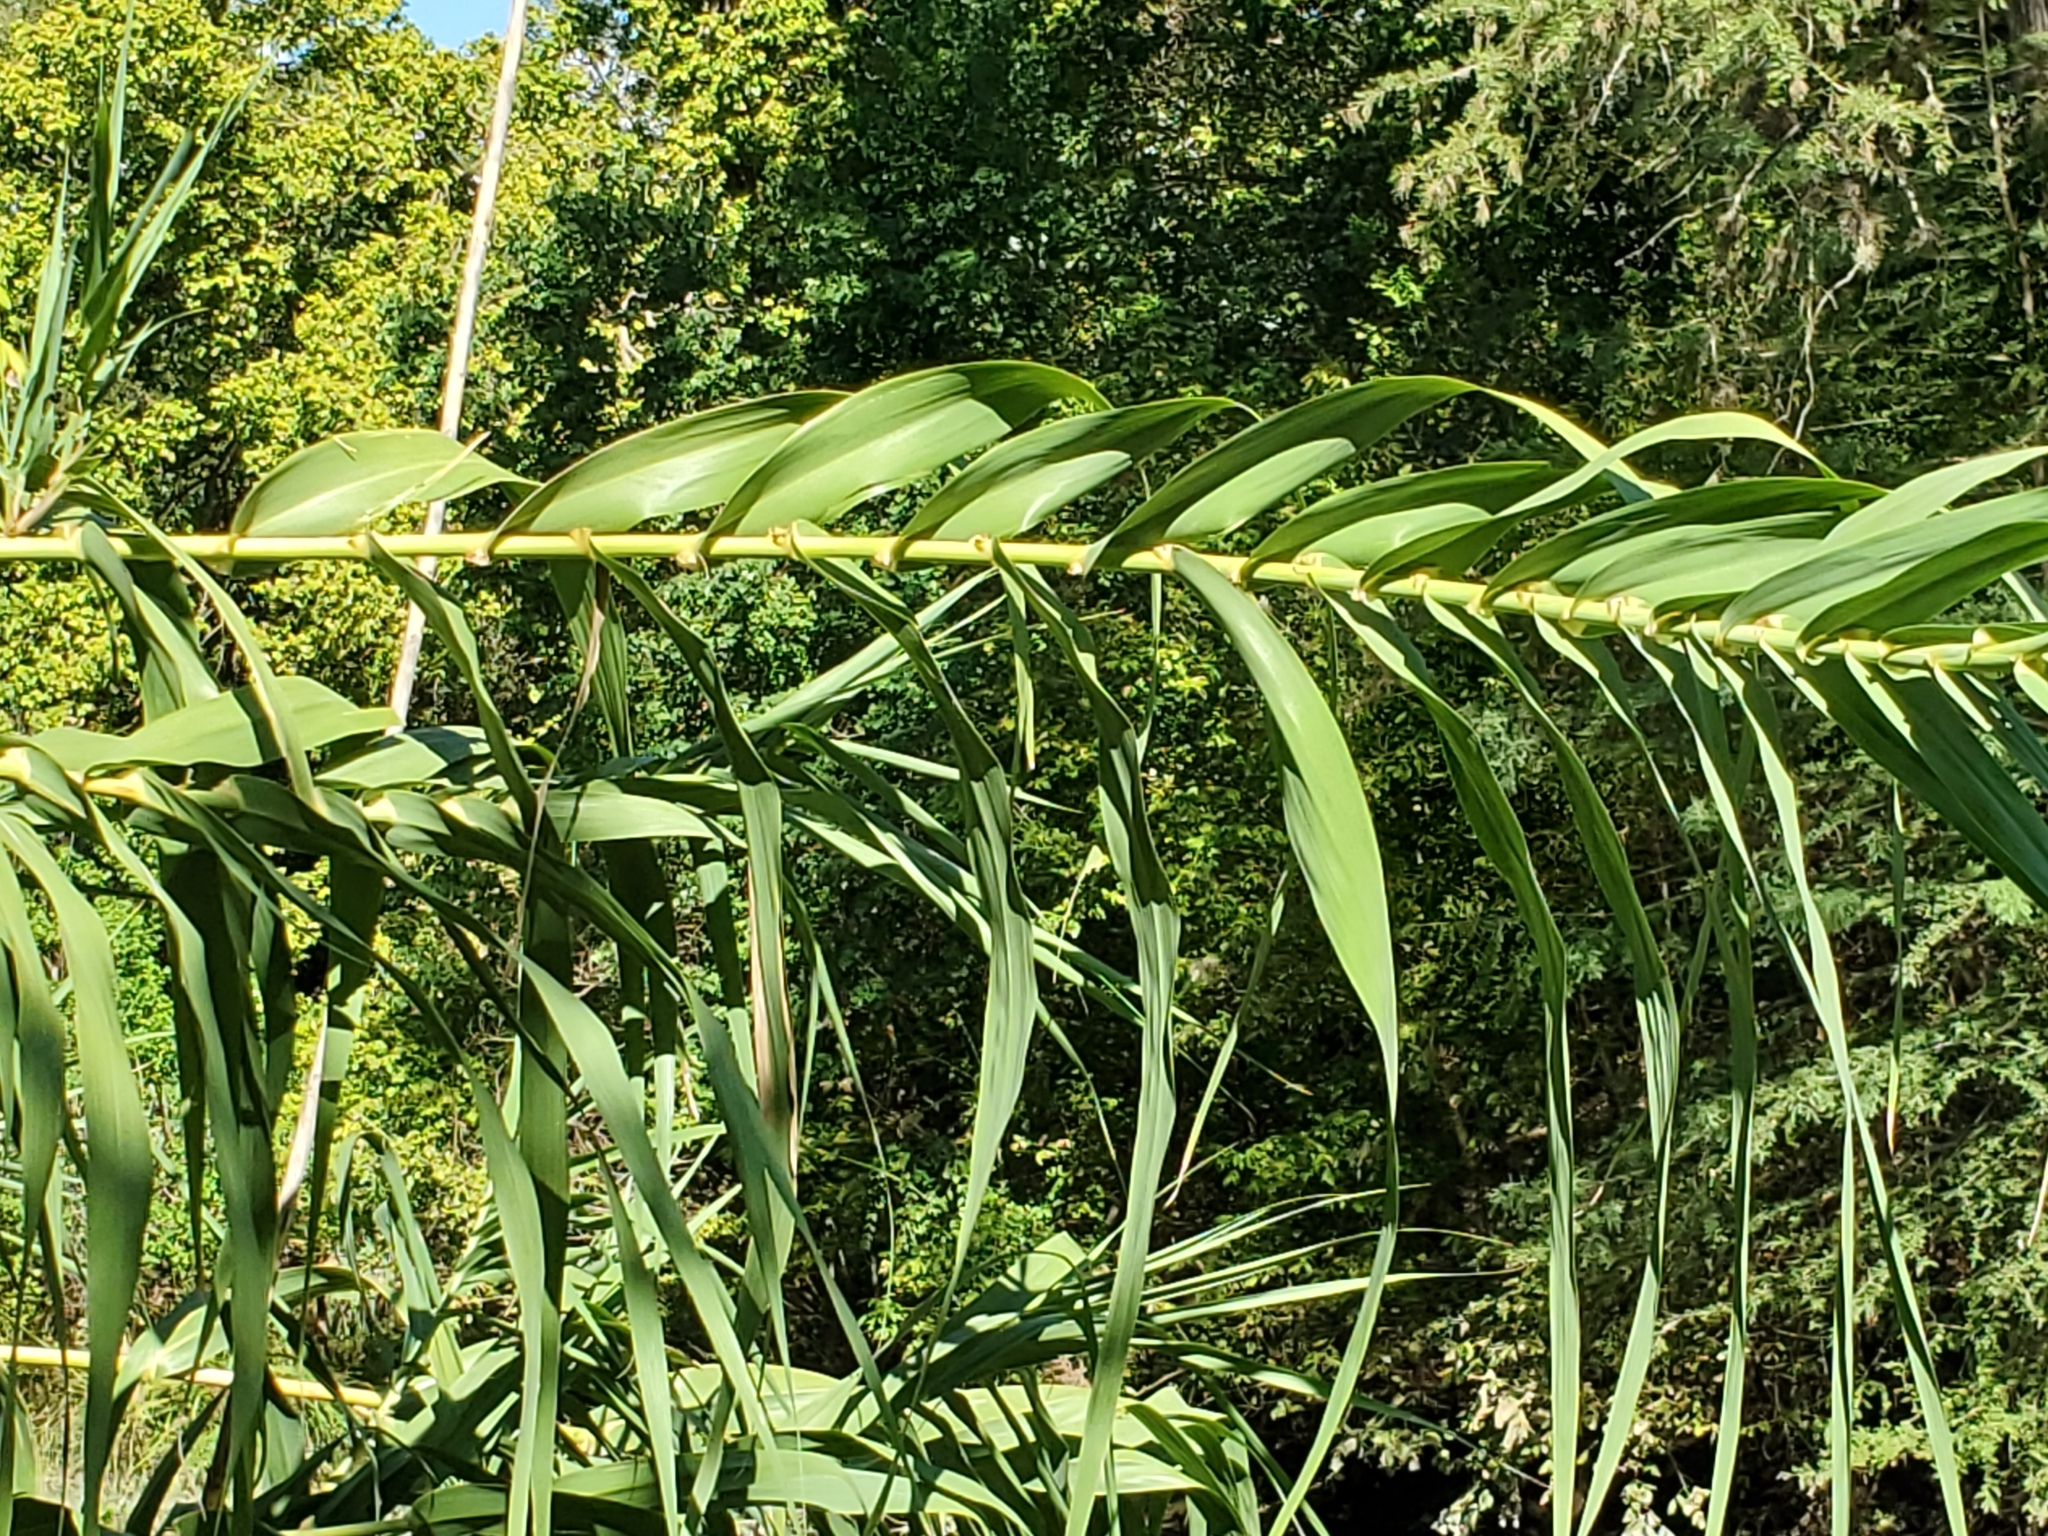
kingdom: Plantae
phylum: Tracheophyta
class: Liliopsida
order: Poales
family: Poaceae
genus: Arundo
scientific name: Arundo donax
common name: Giant reed
